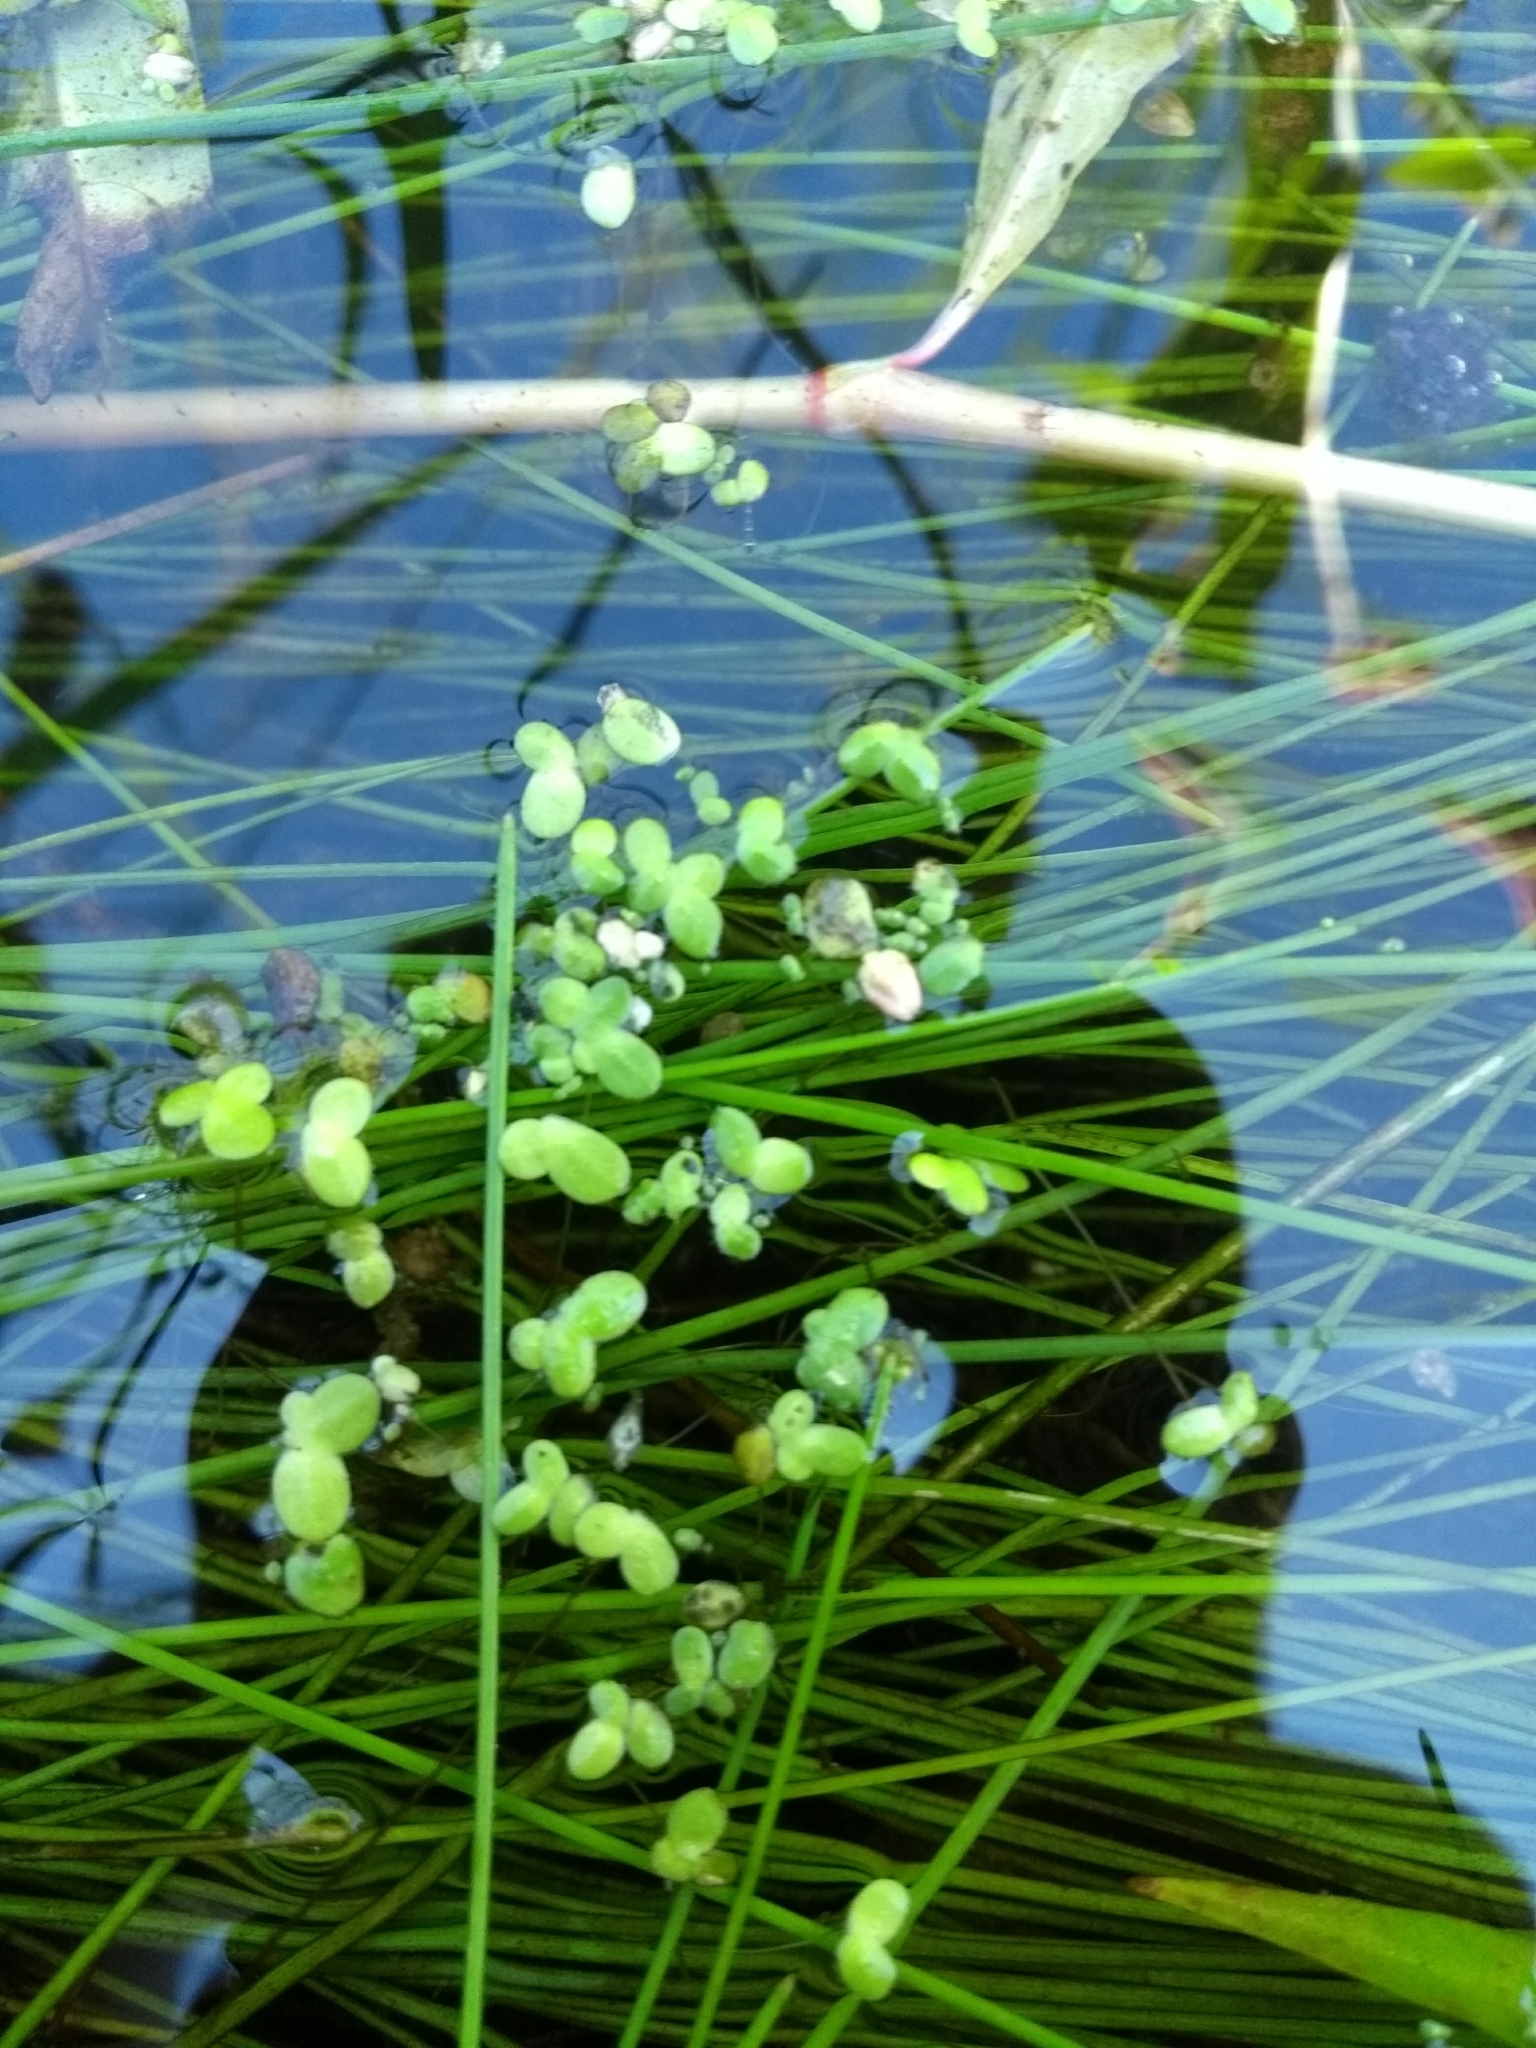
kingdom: Plantae
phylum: Tracheophyta
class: Liliopsida
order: Alismatales
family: Araceae
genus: Lemna
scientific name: Lemna minor
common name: Common duckweed
